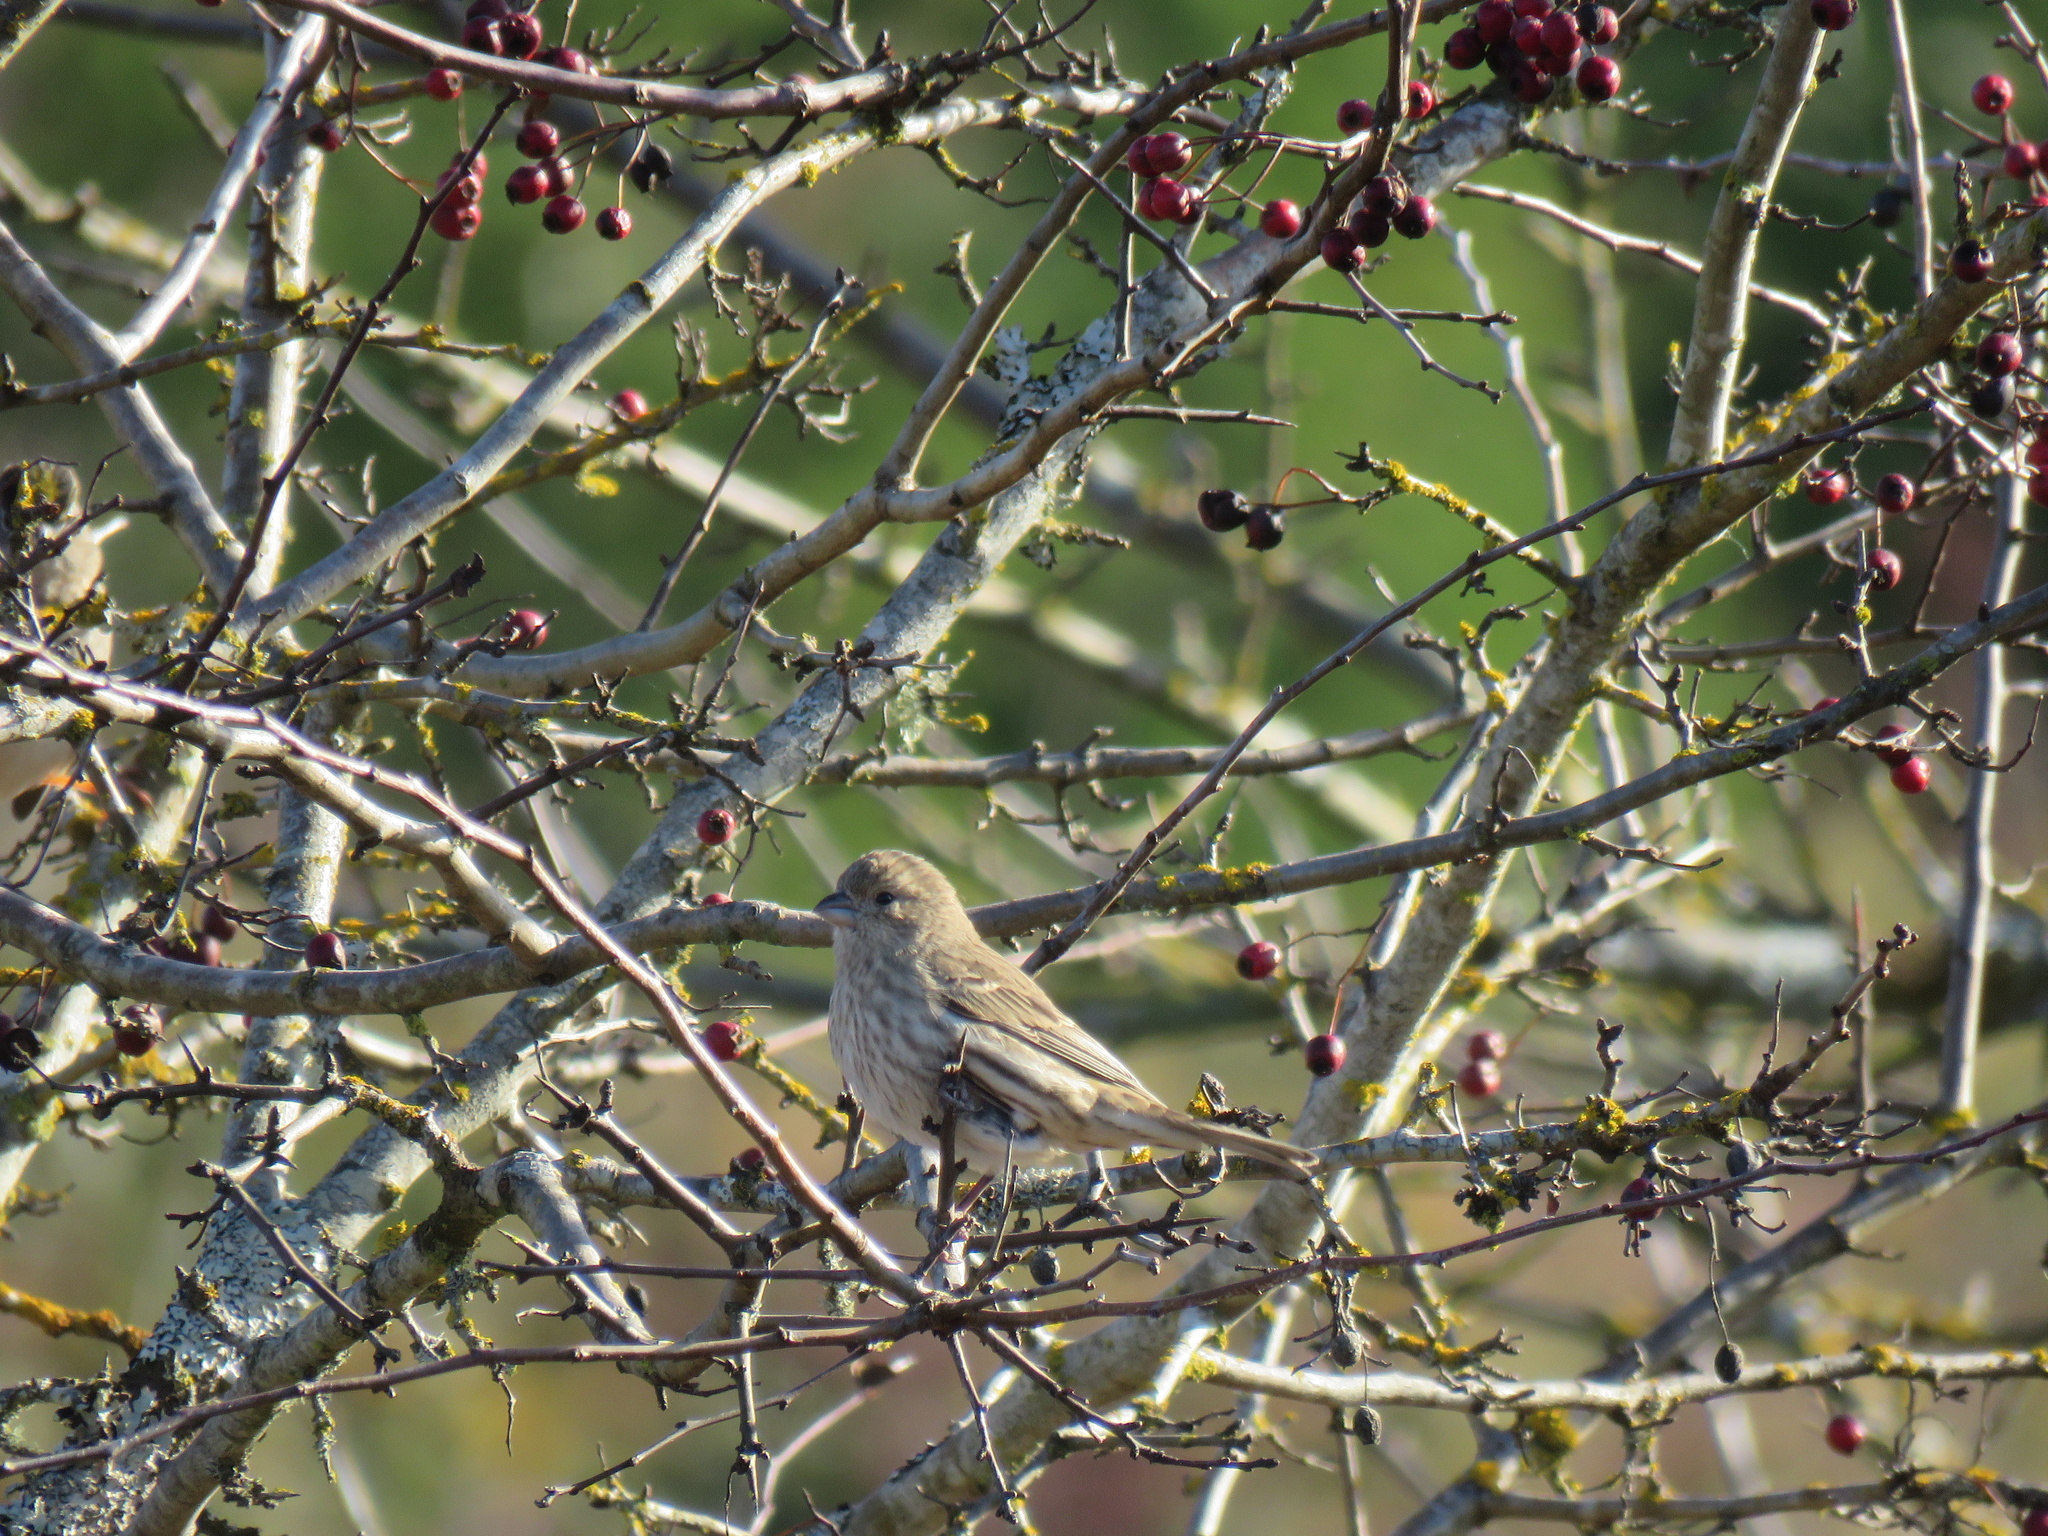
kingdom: Animalia
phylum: Chordata
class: Aves
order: Passeriformes
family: Fringillidae
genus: Haemorhous
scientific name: Haemorhous mexicanus
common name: House finch
